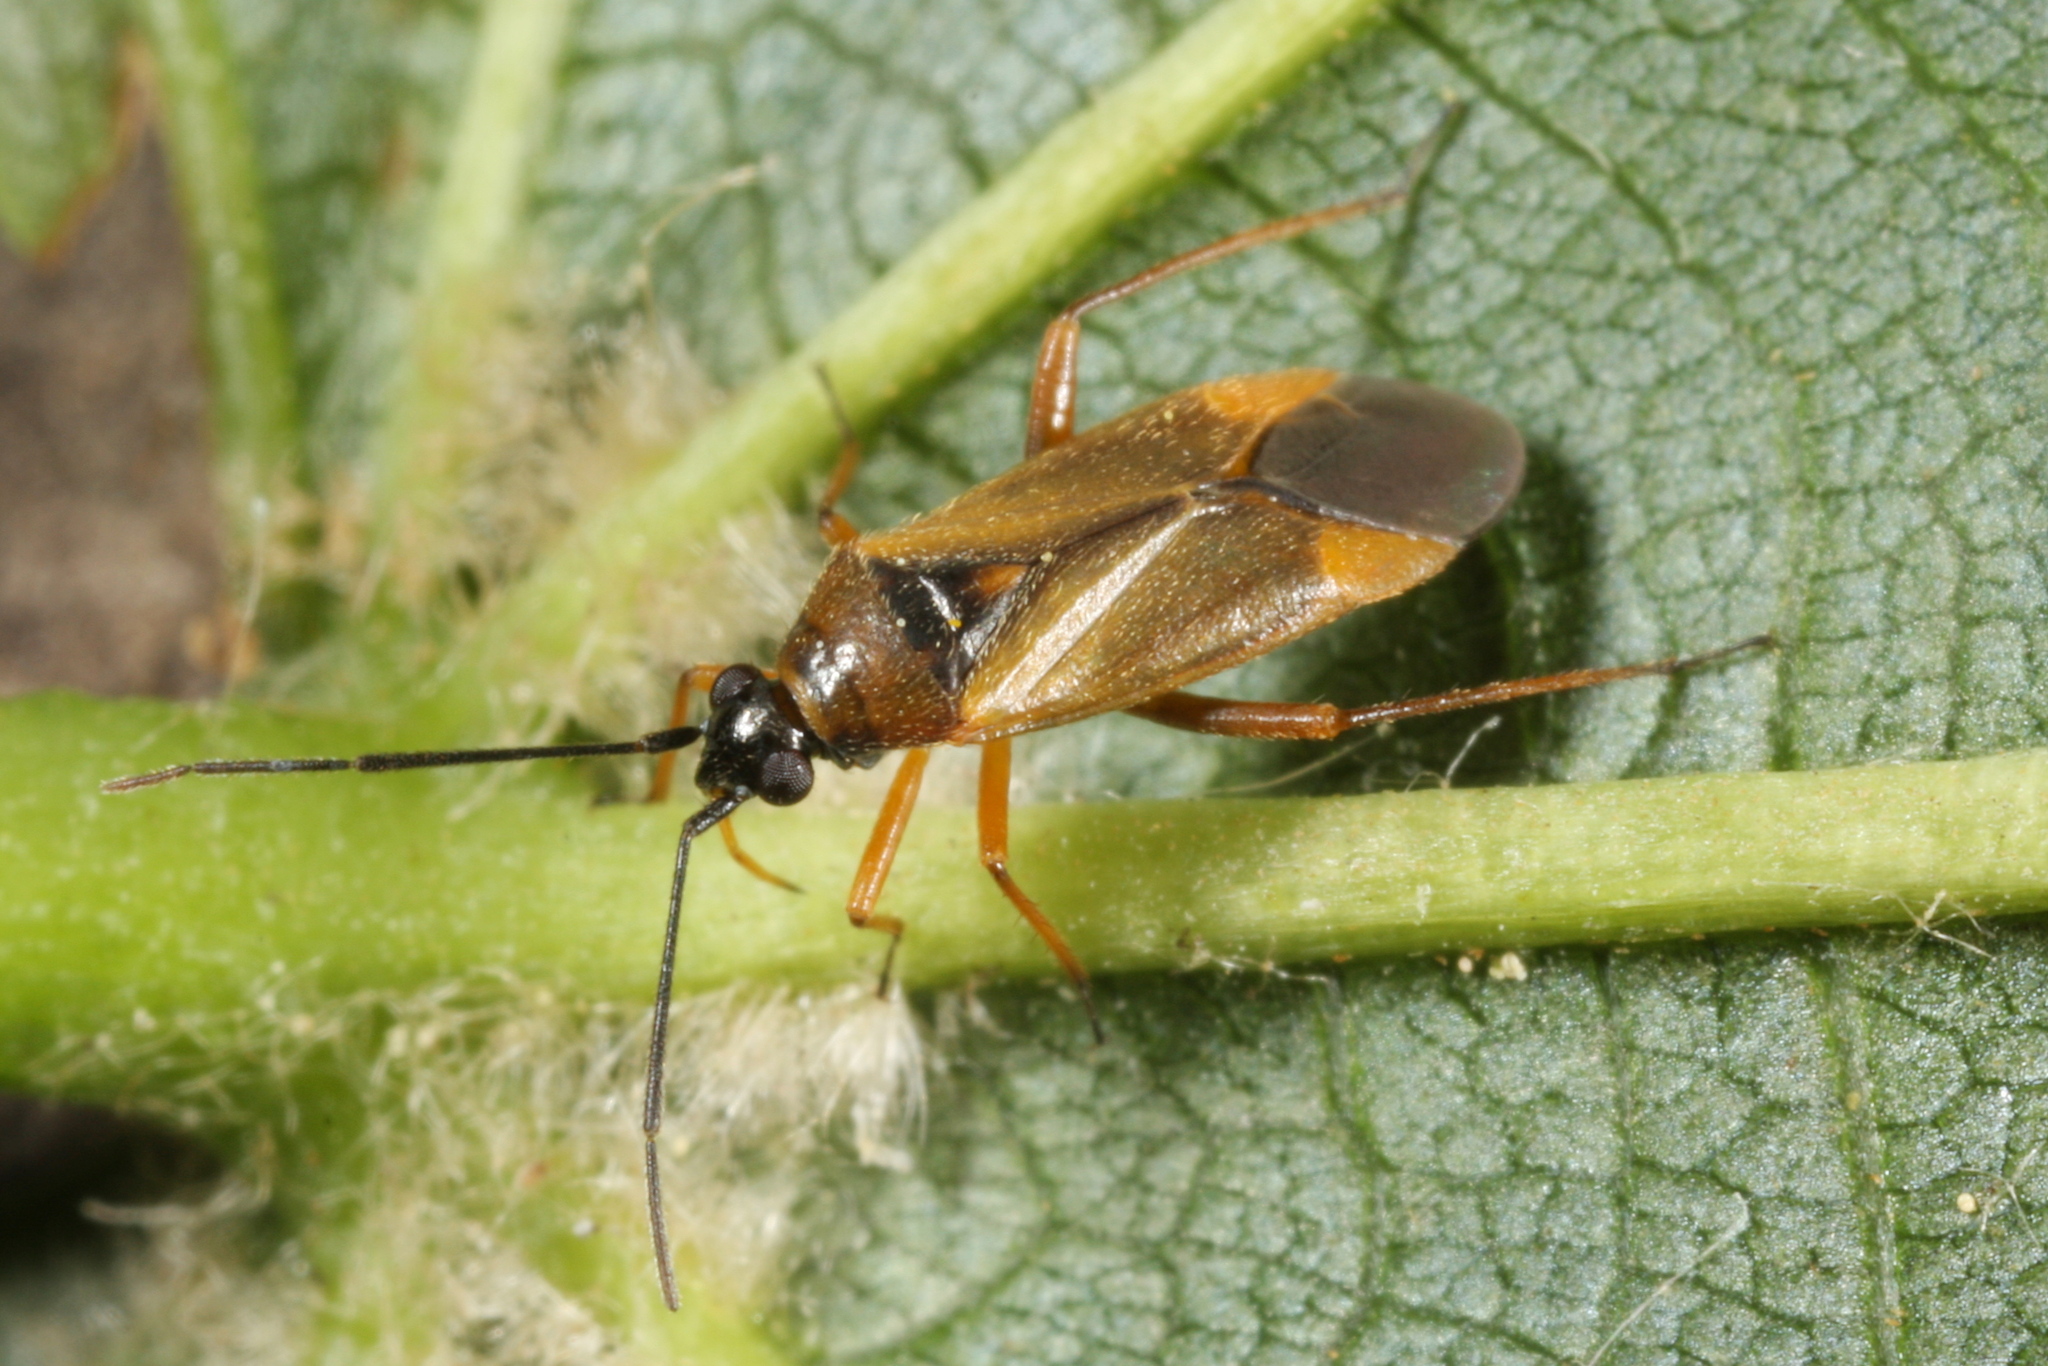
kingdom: Animalia
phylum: Arthropoda
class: Insecta
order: Hemiptera
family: Miridae
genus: Brachyarthrum
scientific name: Brachyarthrum limitatum
